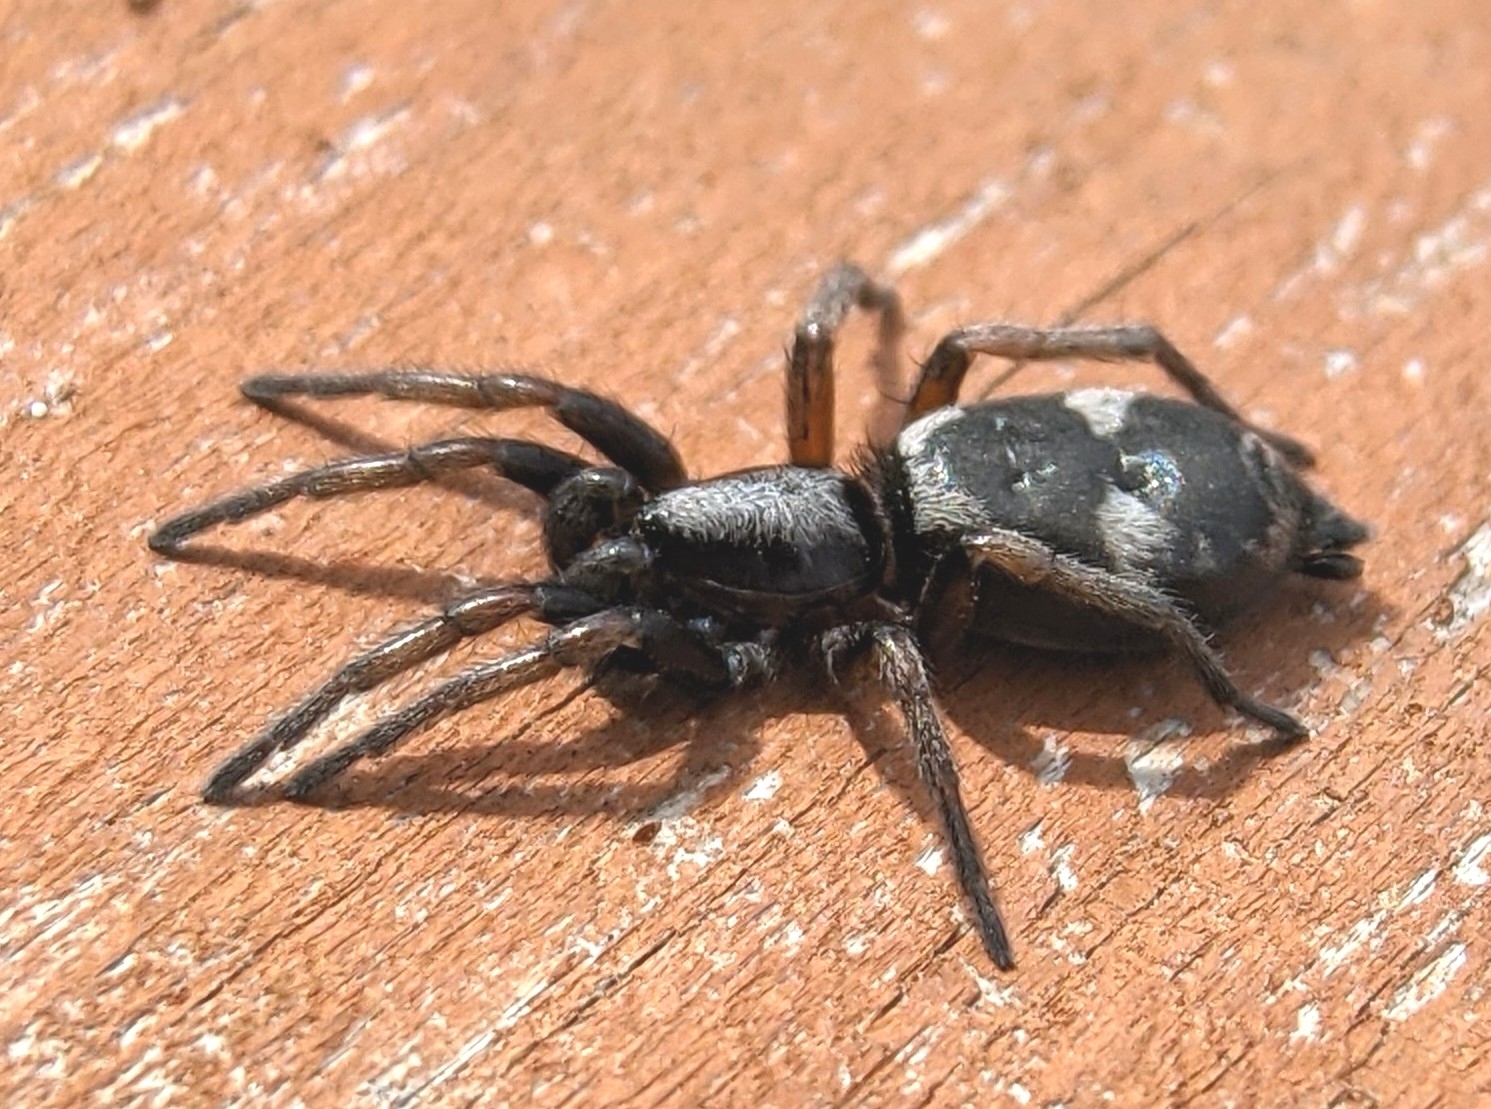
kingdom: Animalia
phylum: Arthropoda
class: Arachnida
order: Araneae
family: Gnaphosidae
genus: Sergiolus
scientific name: Sergiolus montanus
